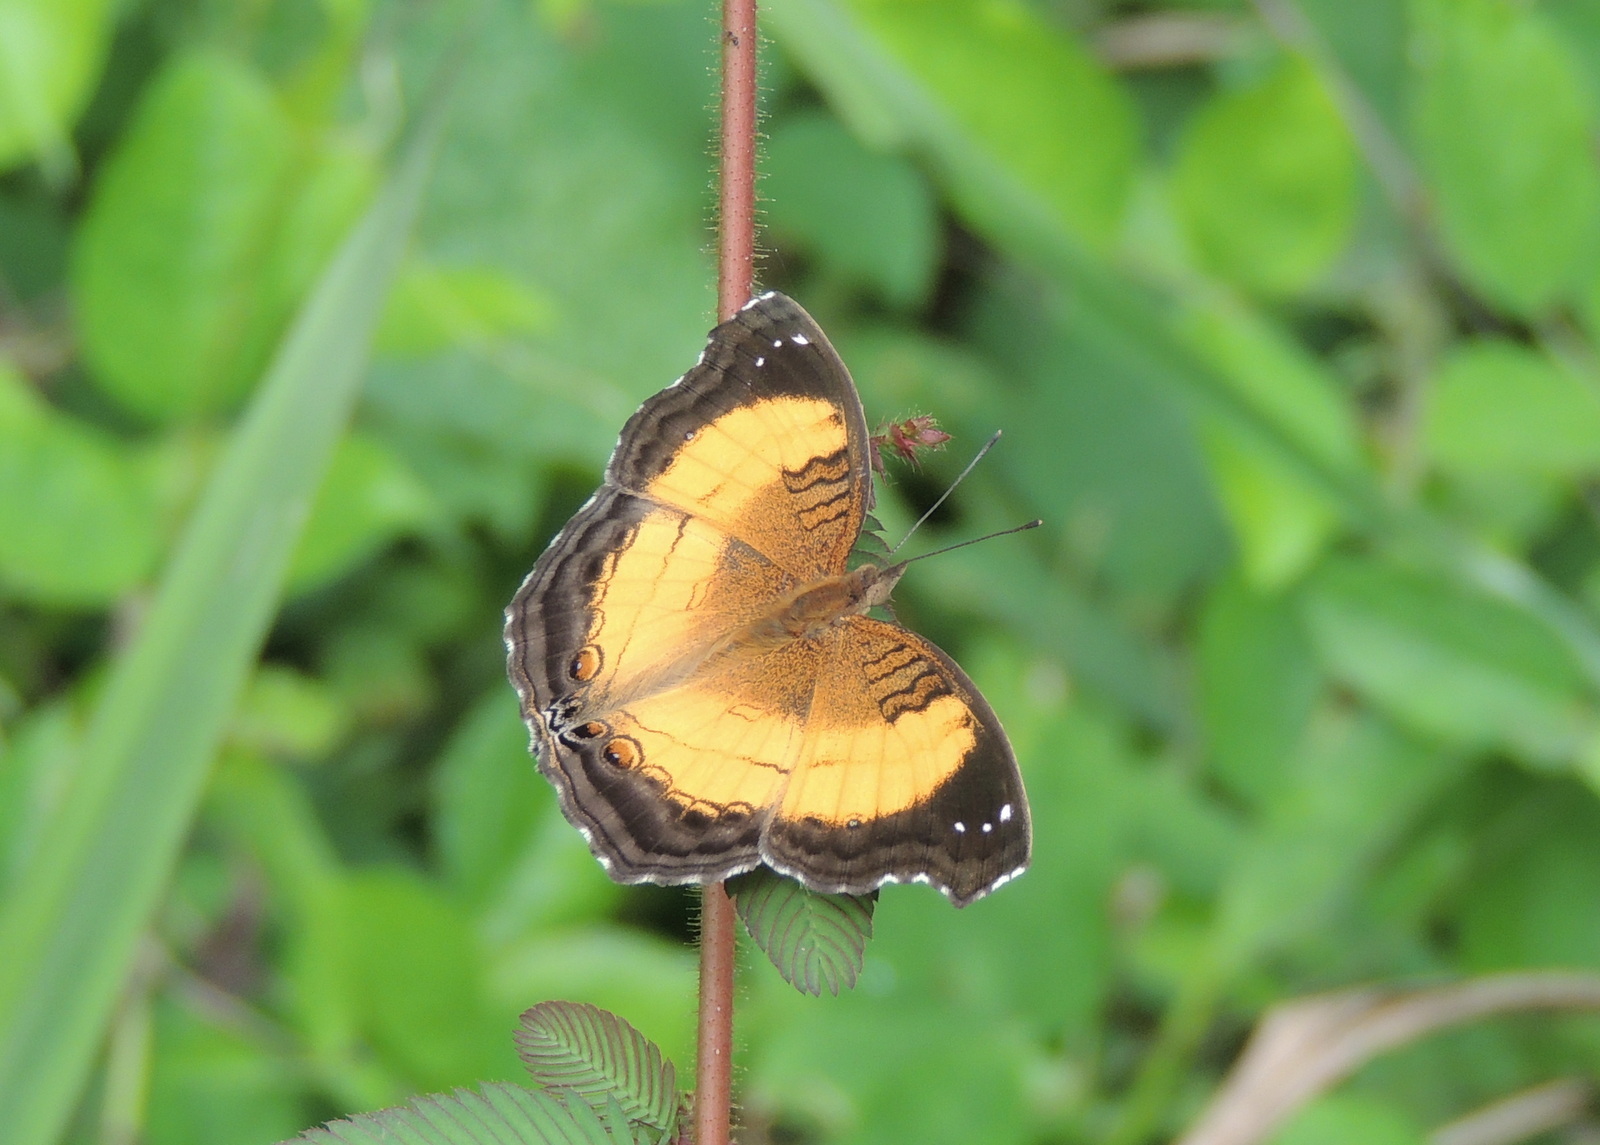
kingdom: Animalia
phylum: Arthropoda
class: Insecta
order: Lepidoptera
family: Nymphalidae
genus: Junonia
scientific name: Junonia terea
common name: Soldier pansy
